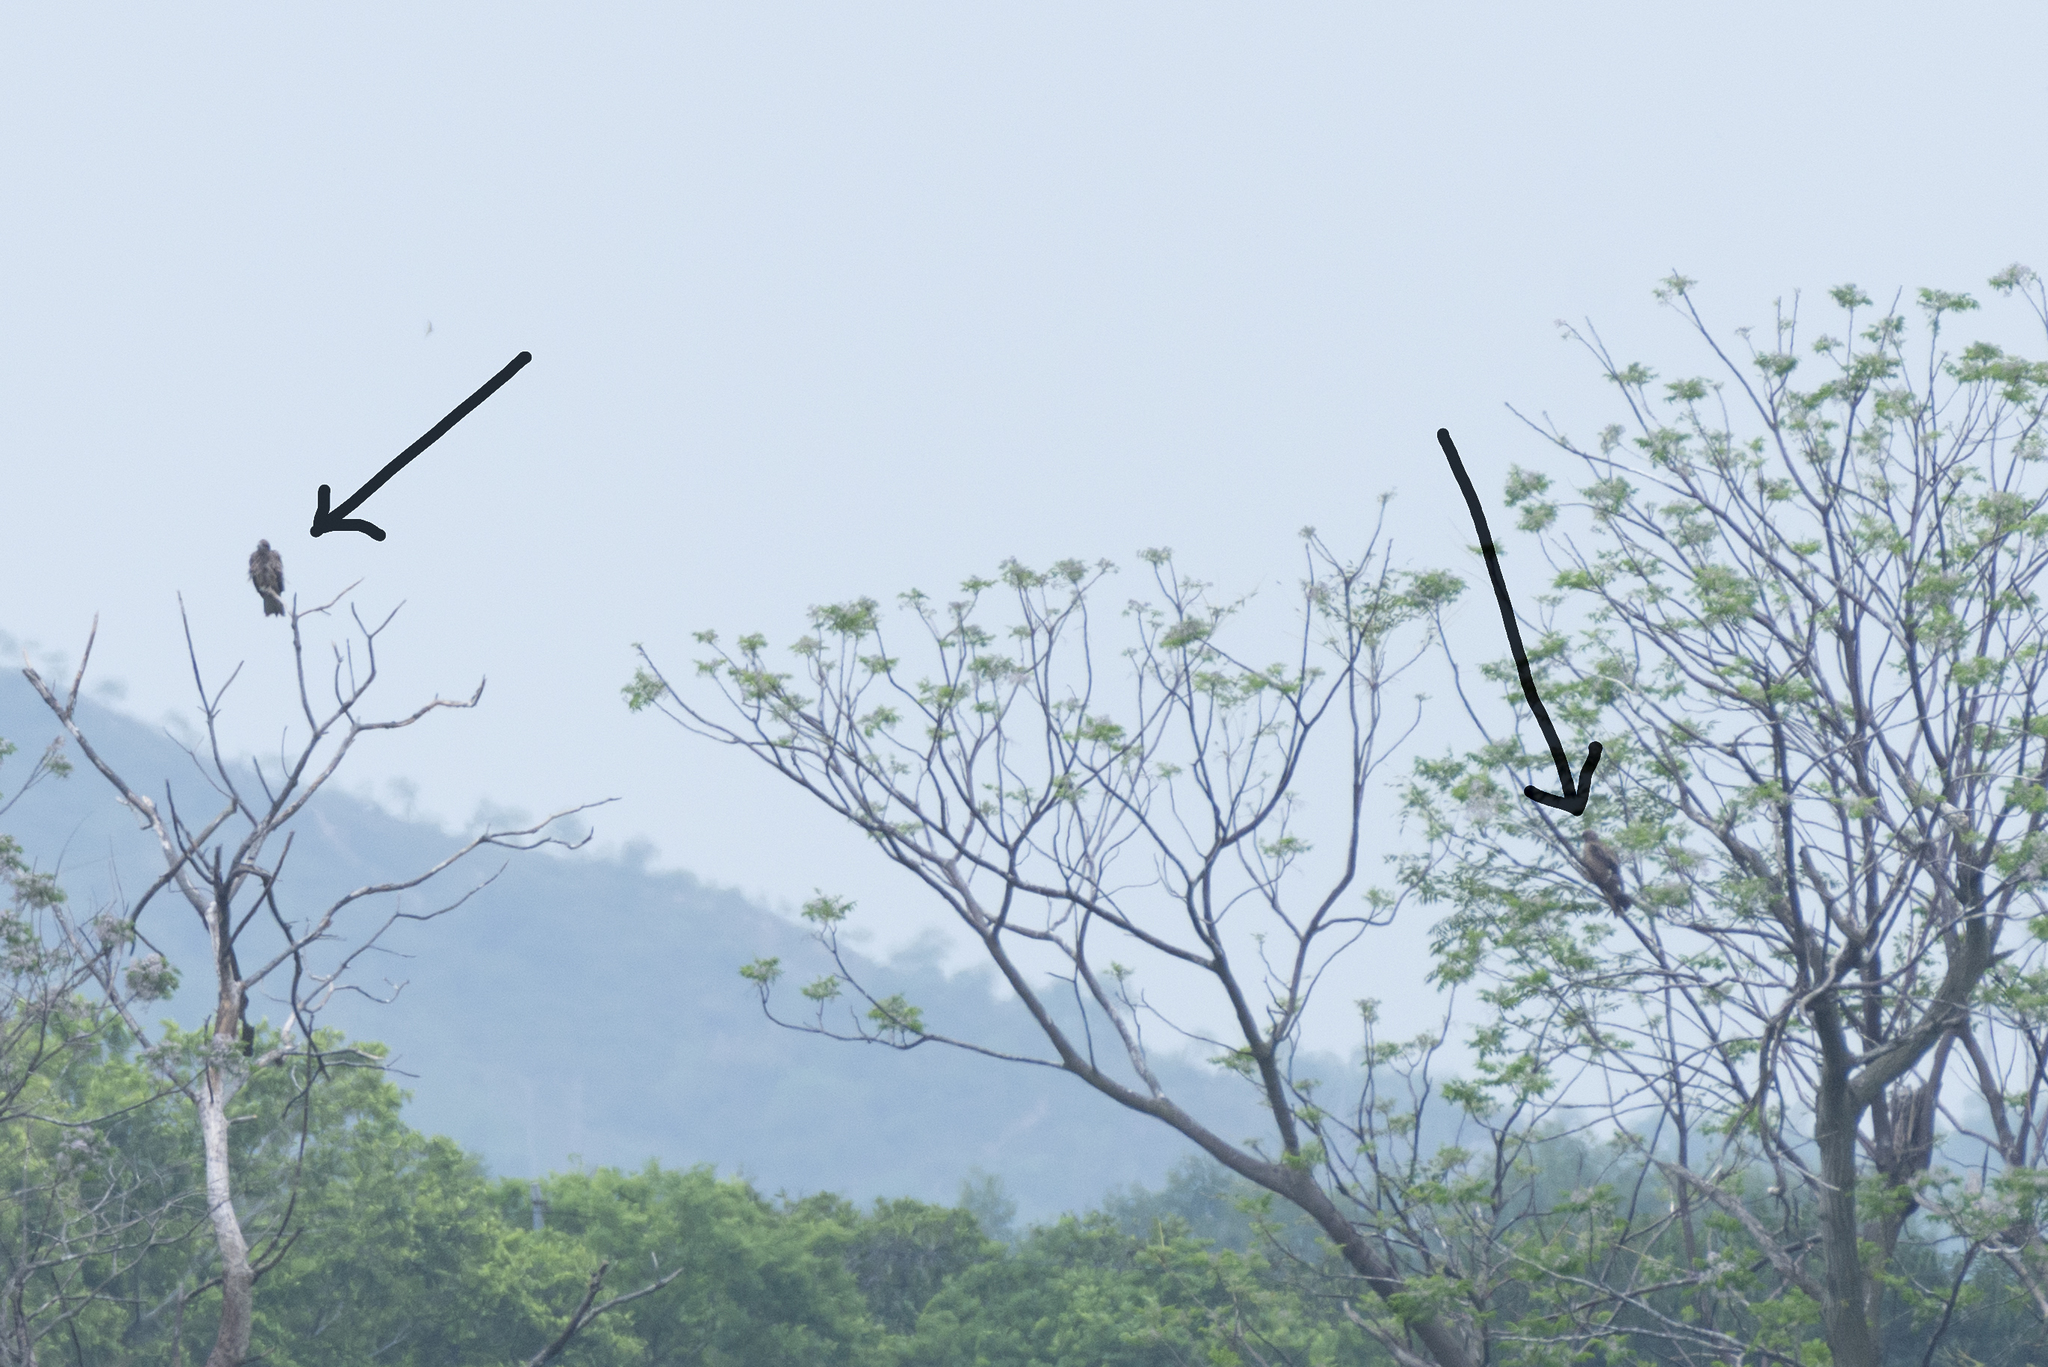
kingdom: Animalia
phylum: Chordata
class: Aves
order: Accipitriformes
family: Accipitridae
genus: Milvus
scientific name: Milvus migrans
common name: Black kite
